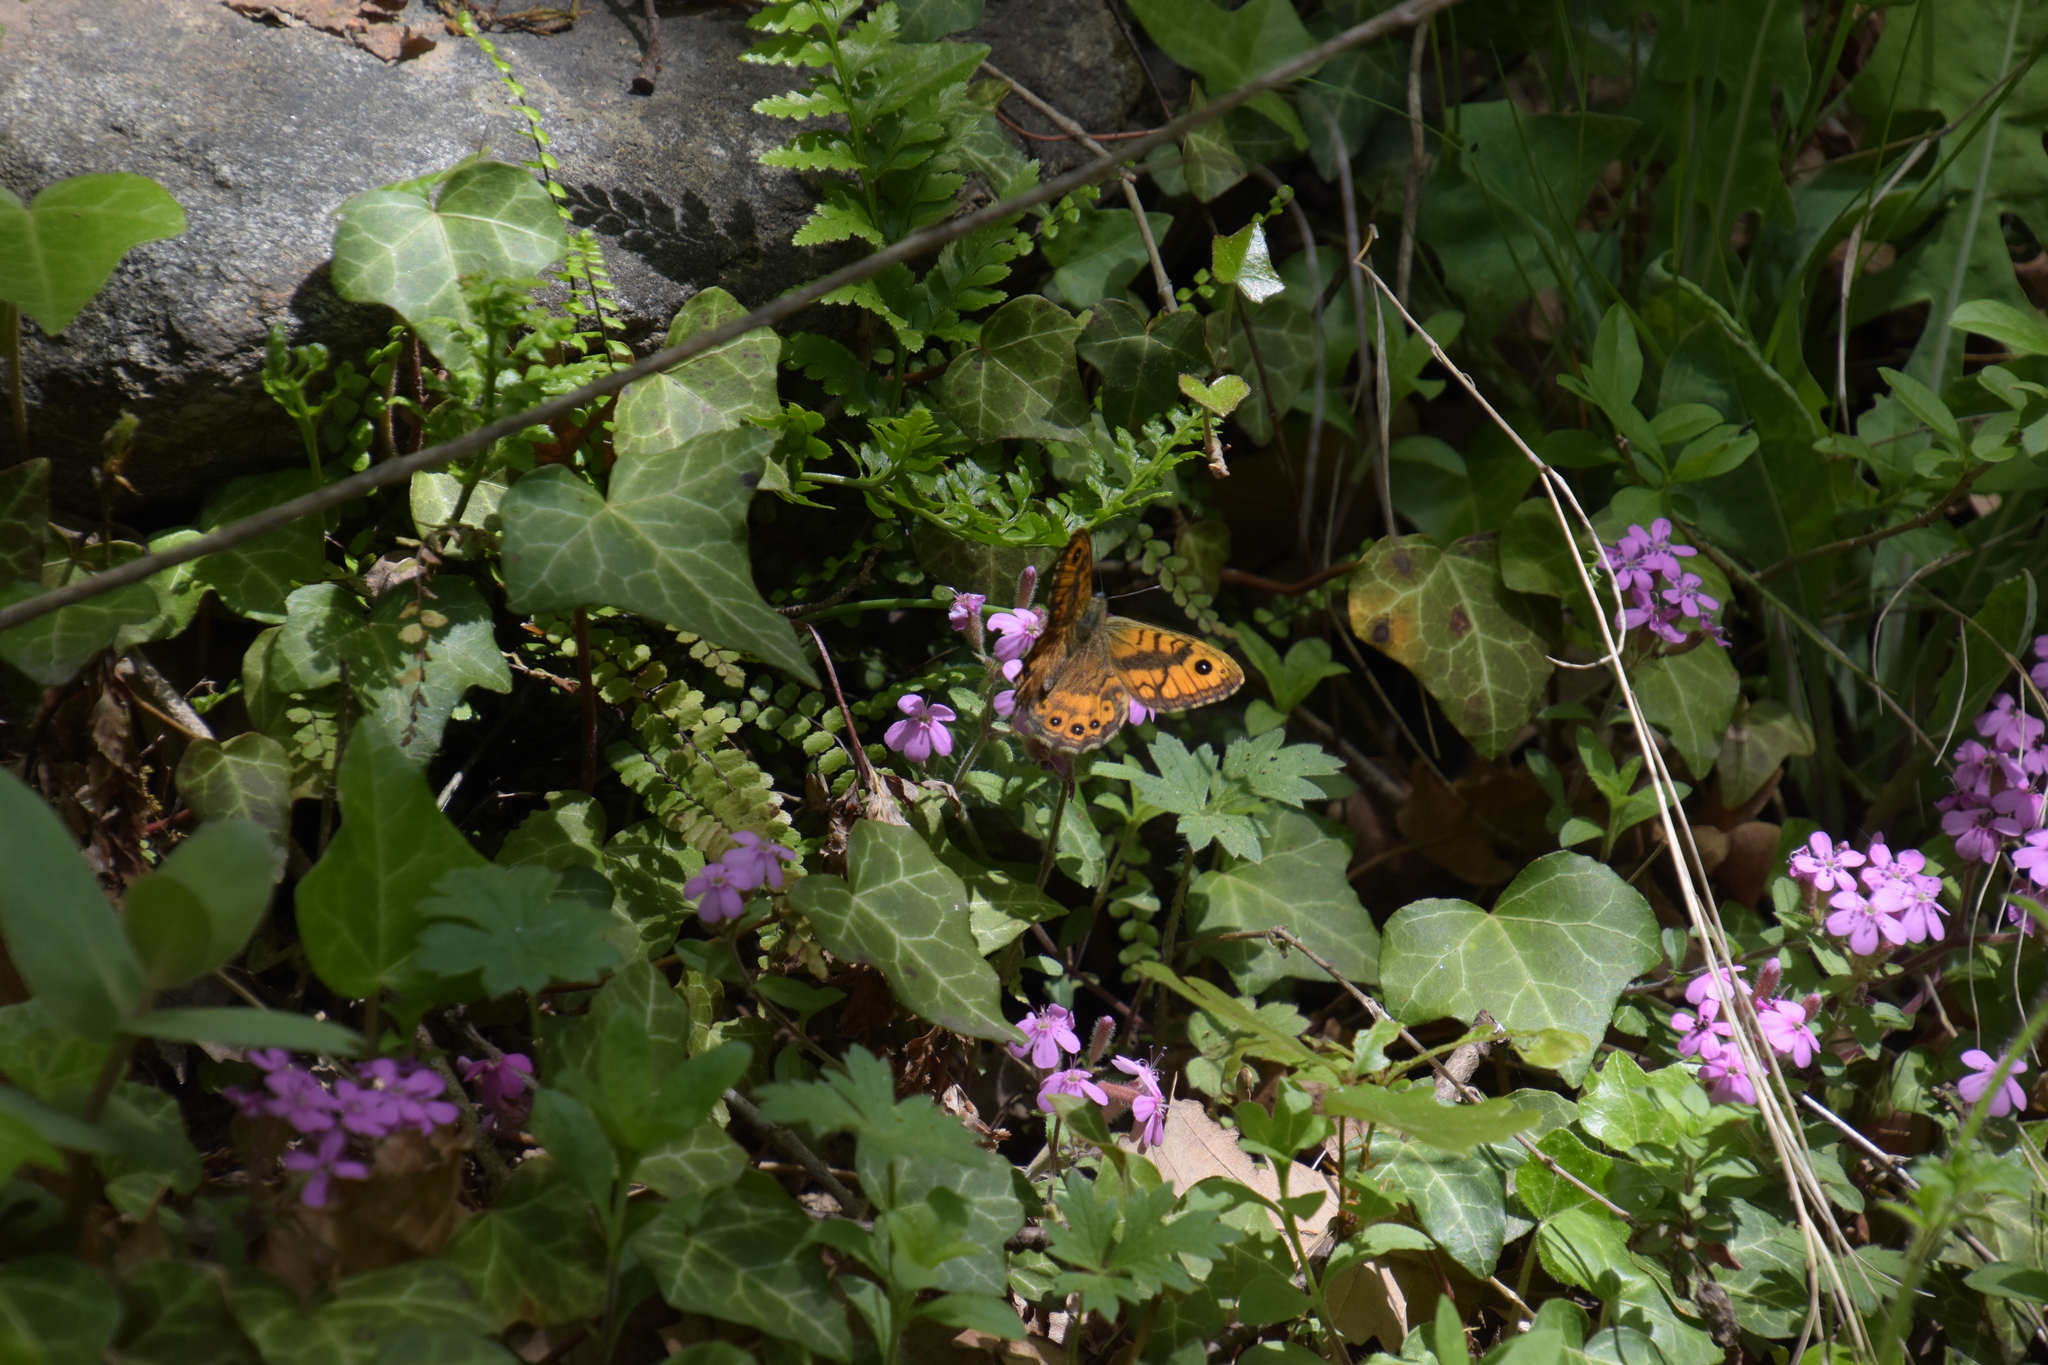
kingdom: Animalia
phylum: Arthropoda
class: Insecta
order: Lepidoptera
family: Nymphalidae
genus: Pararge
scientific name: Pararge Lasiommata megera
